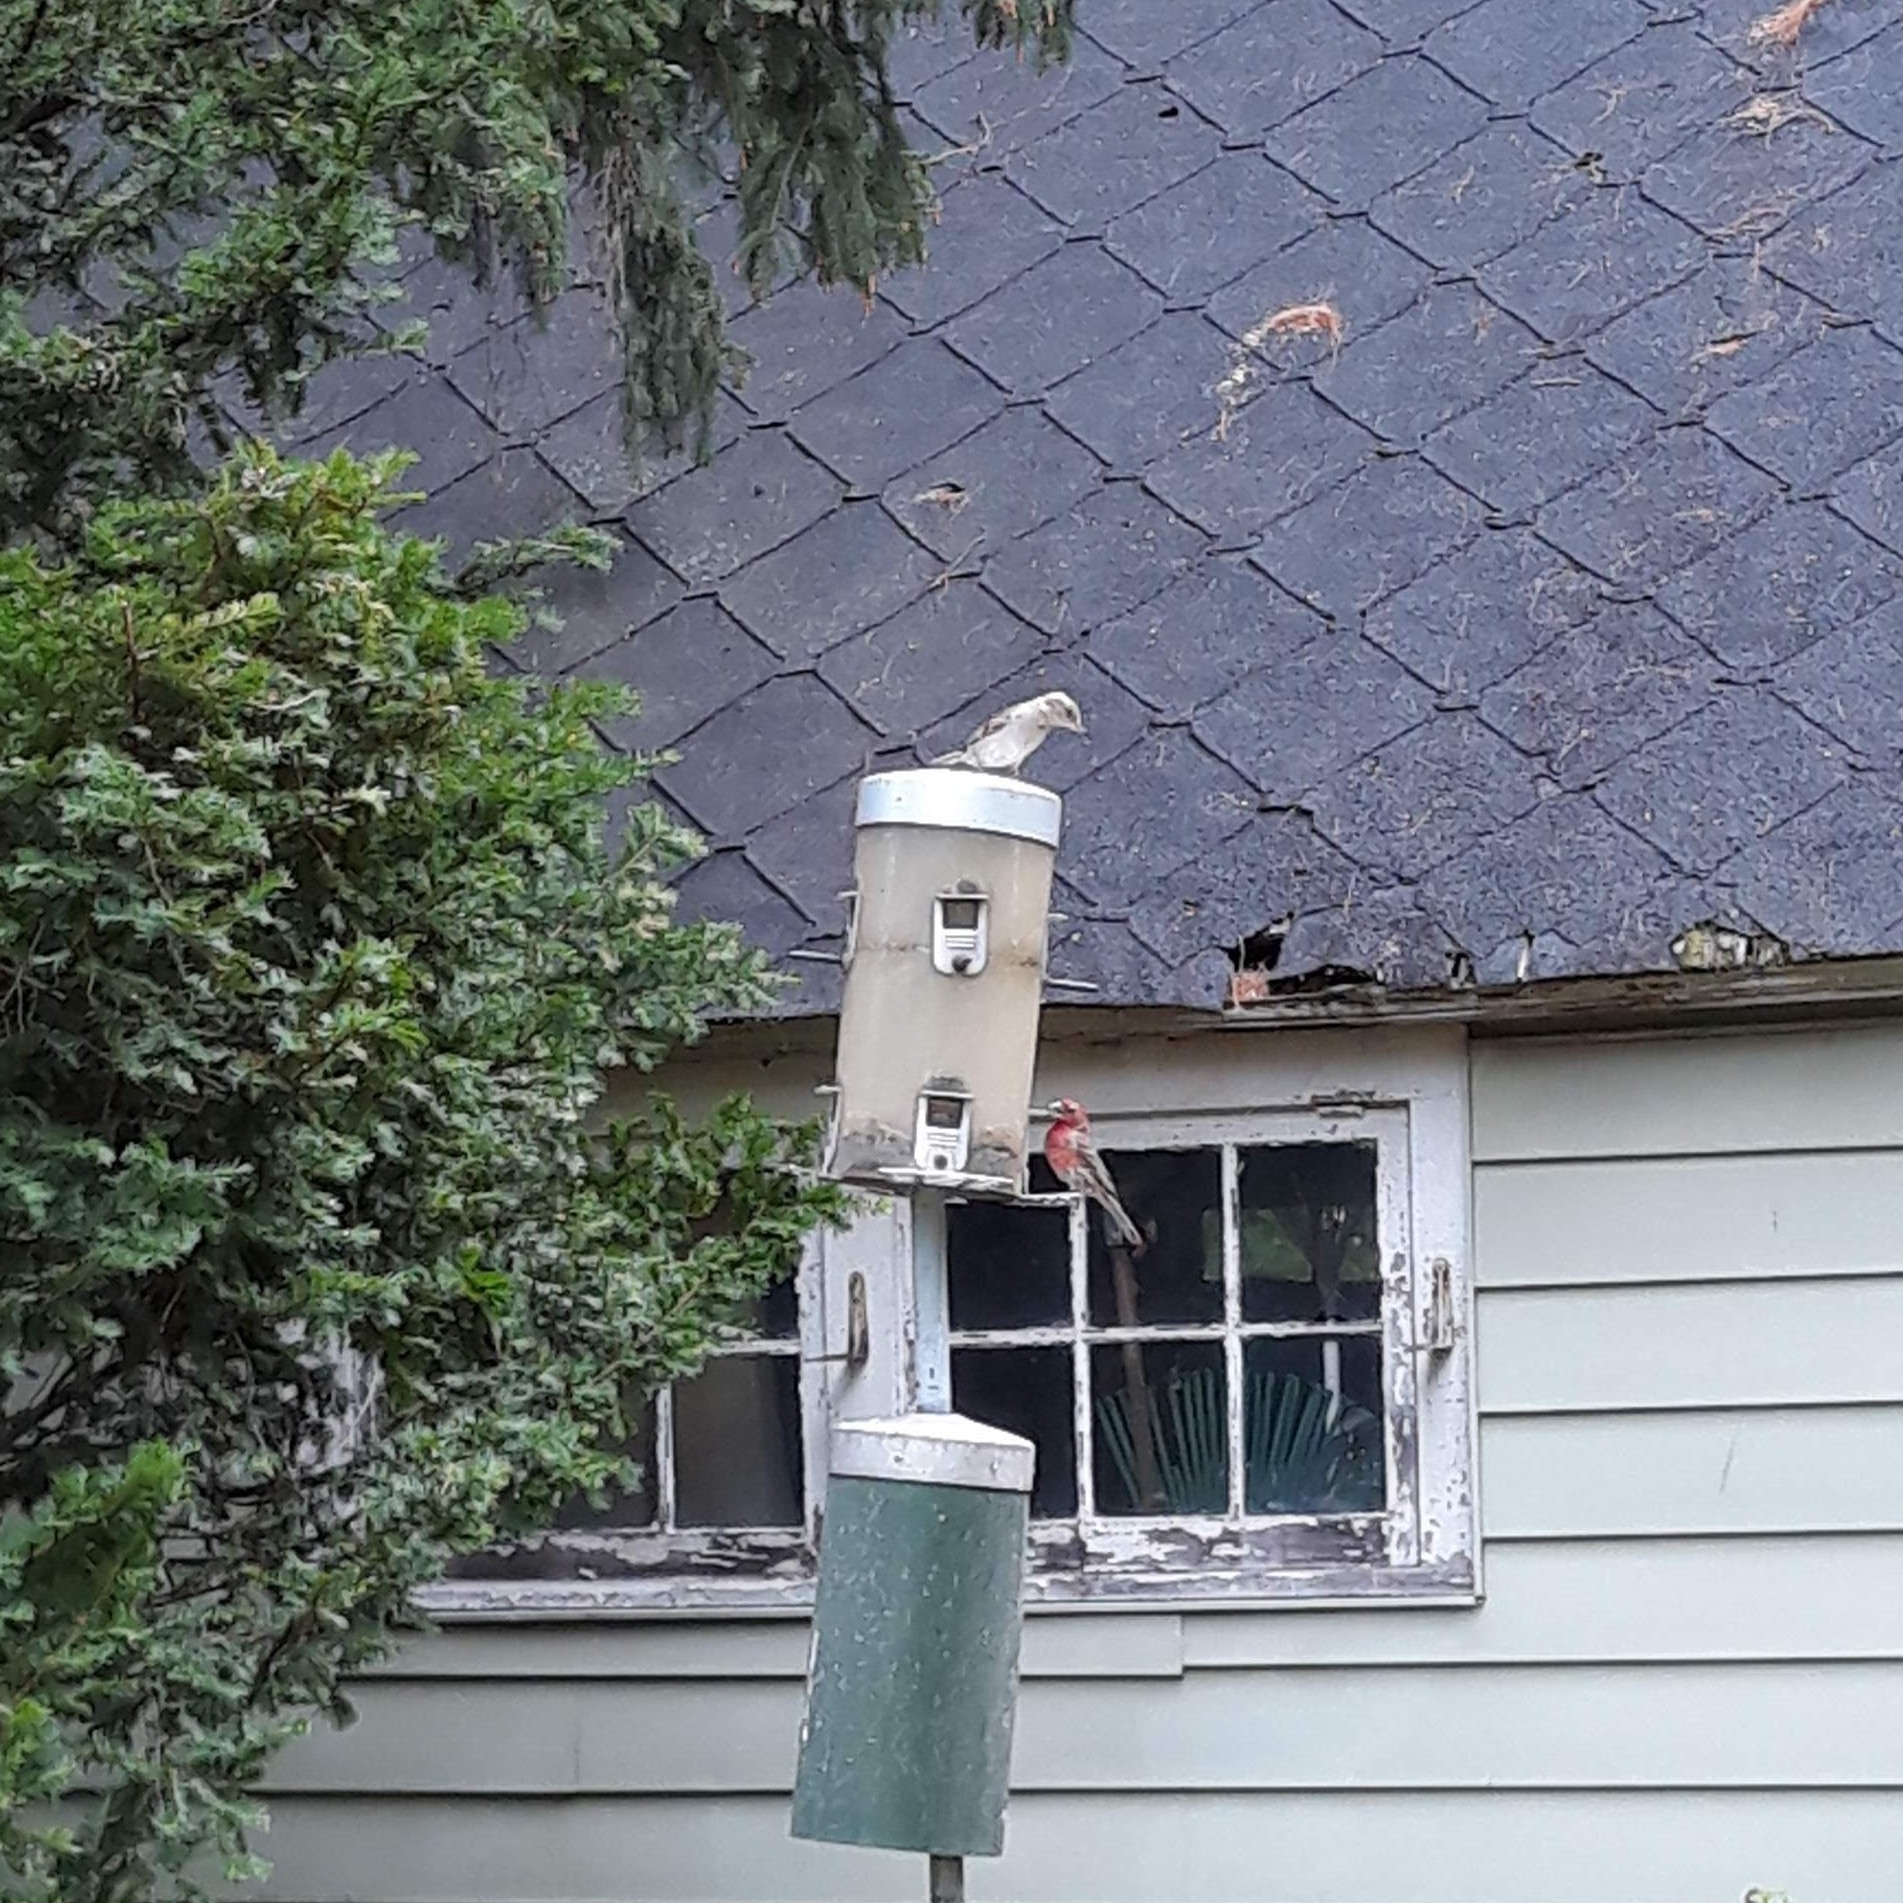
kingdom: Animalia
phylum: Chordata
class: Aves
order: Passeriformes
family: Fringillidae
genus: Haemorhous
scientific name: Haemorhous mexicanus
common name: House finch
